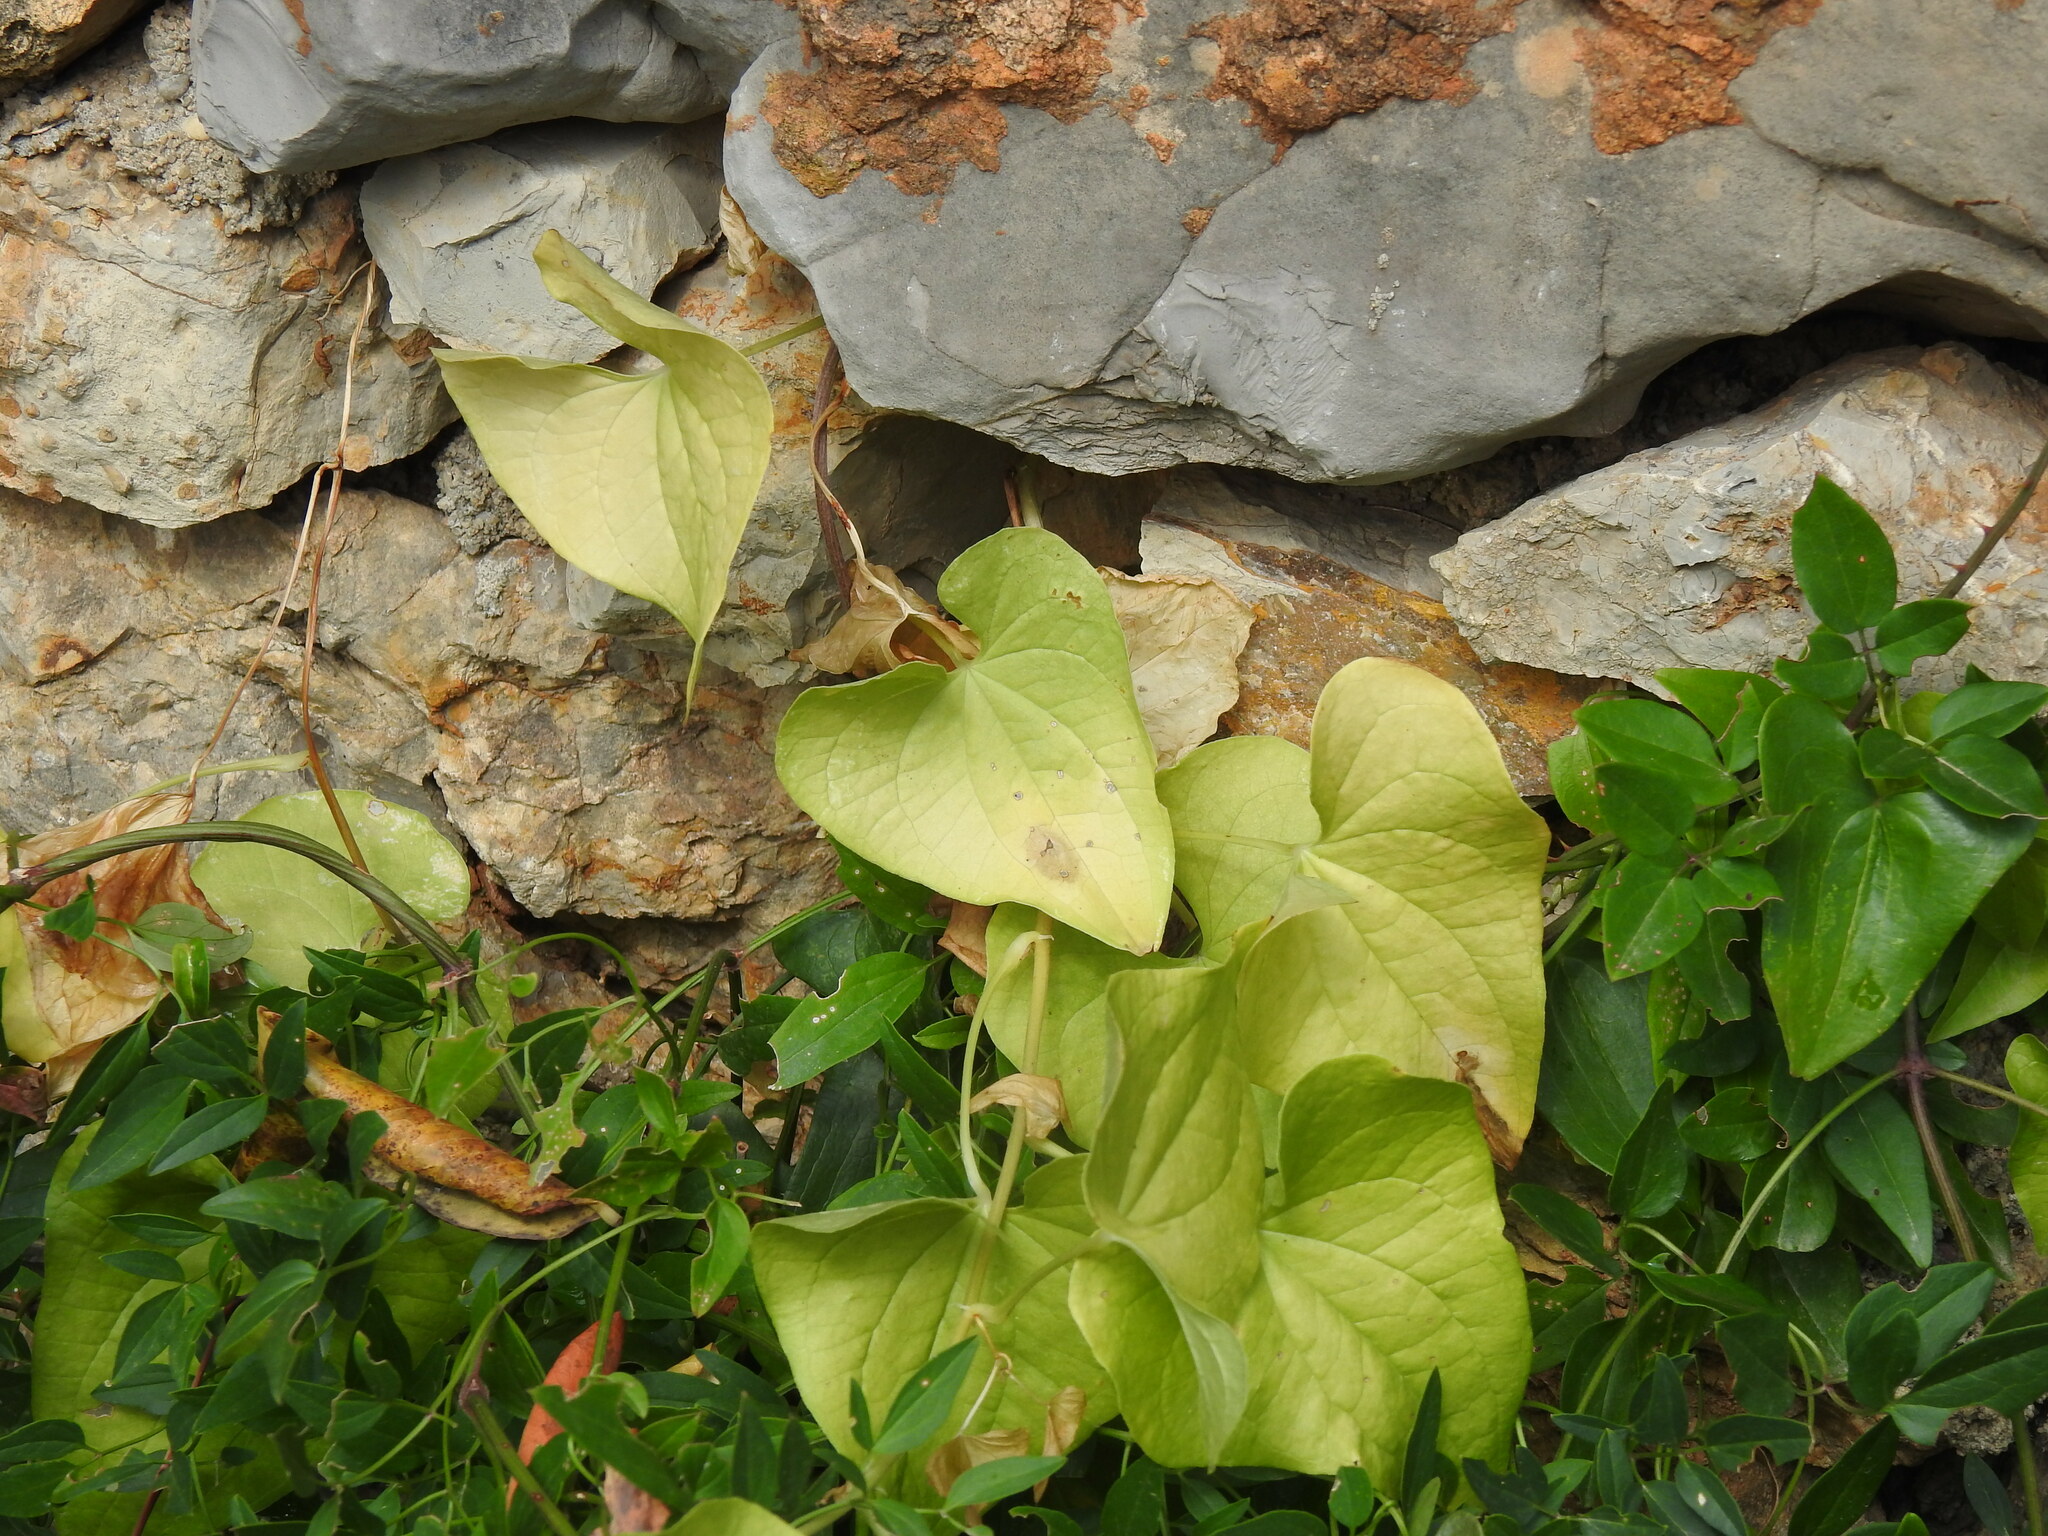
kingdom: Plantae
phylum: Tracheophyta
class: Liliopsida
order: Dioscoreales
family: Dioscoreaceae
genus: Dioscorea
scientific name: Dioscorea communis
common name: Black-bindweed
